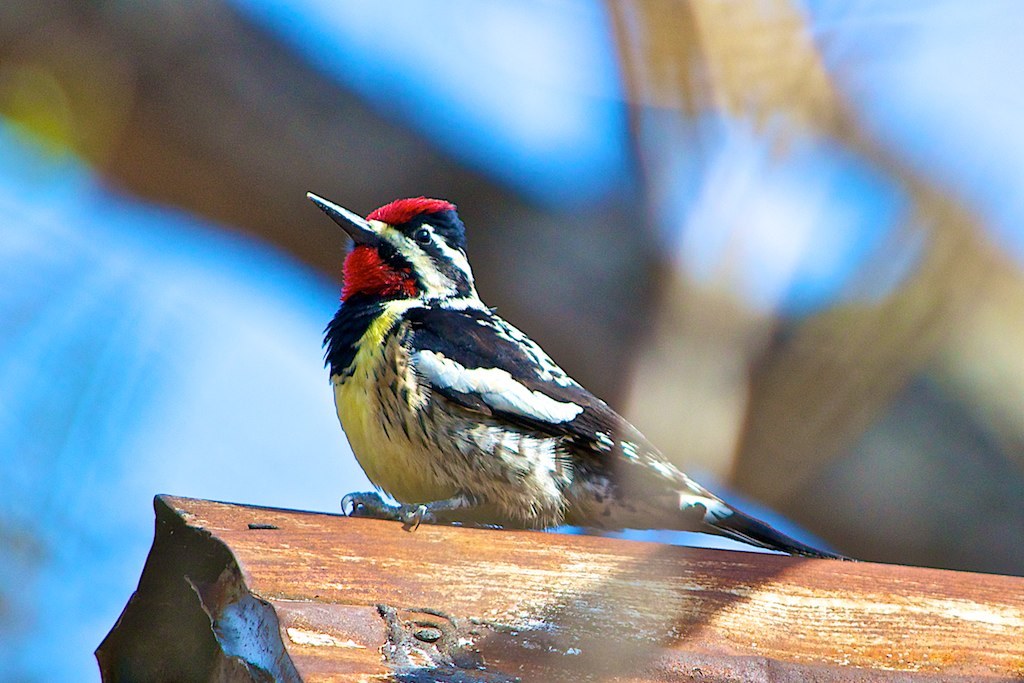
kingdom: Animalia
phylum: Chordata
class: Aves
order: Piciformes
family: Picidae
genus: Sphyrapicus
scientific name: Sphyrapicus varius
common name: Yellow-bellied sapsucker
